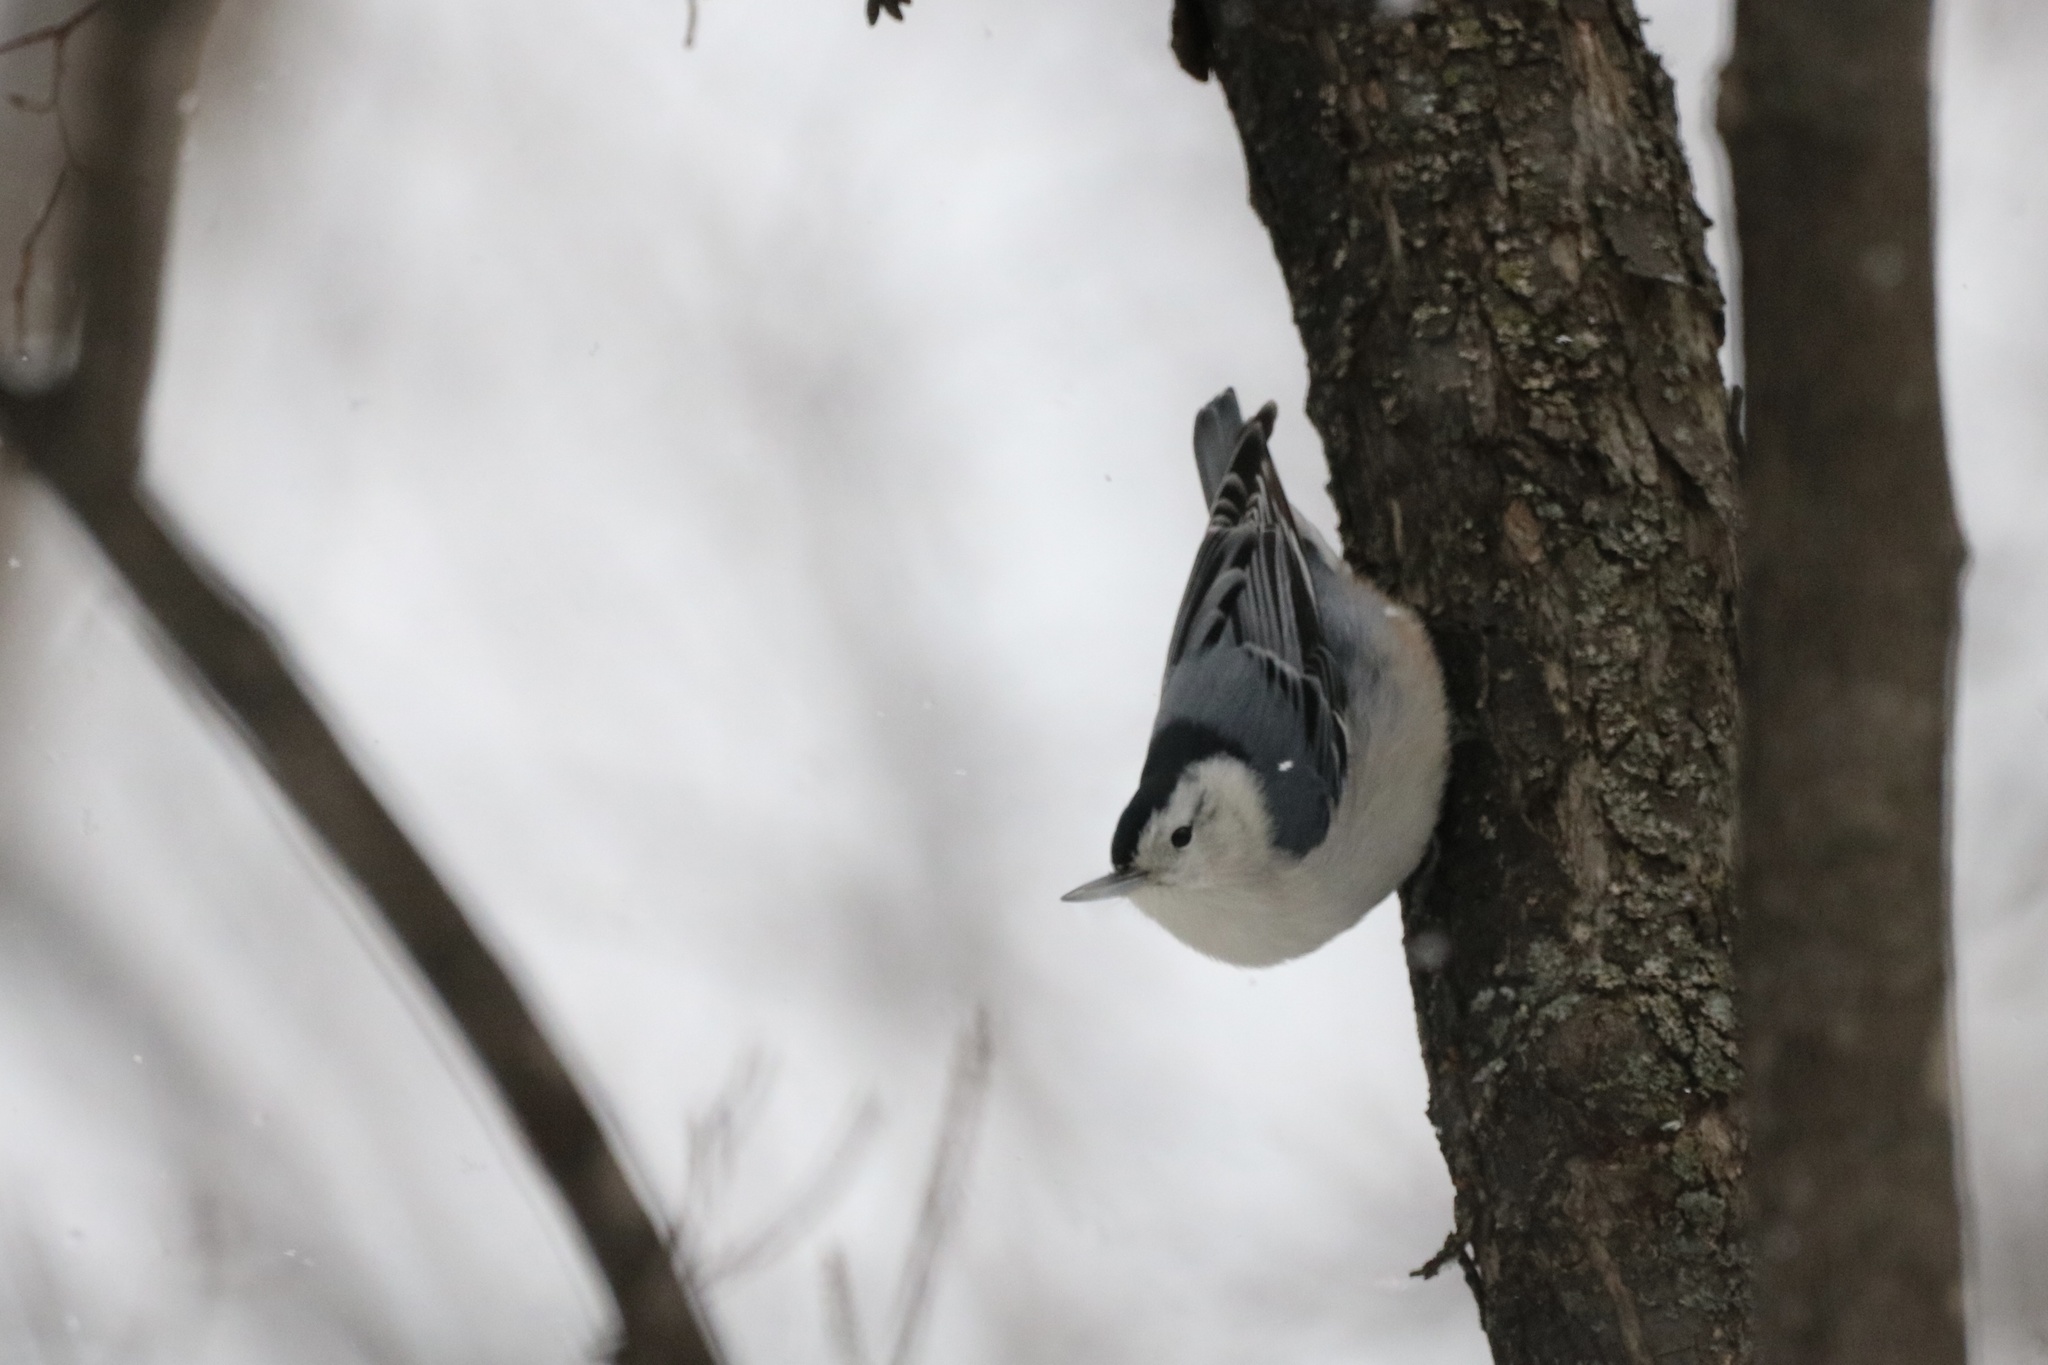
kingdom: Animalia
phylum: Chordata
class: Aves
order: Passeriformes
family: Sittidae
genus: Sitta
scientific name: Sitta carolinensis
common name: White-breasted nuthatch
